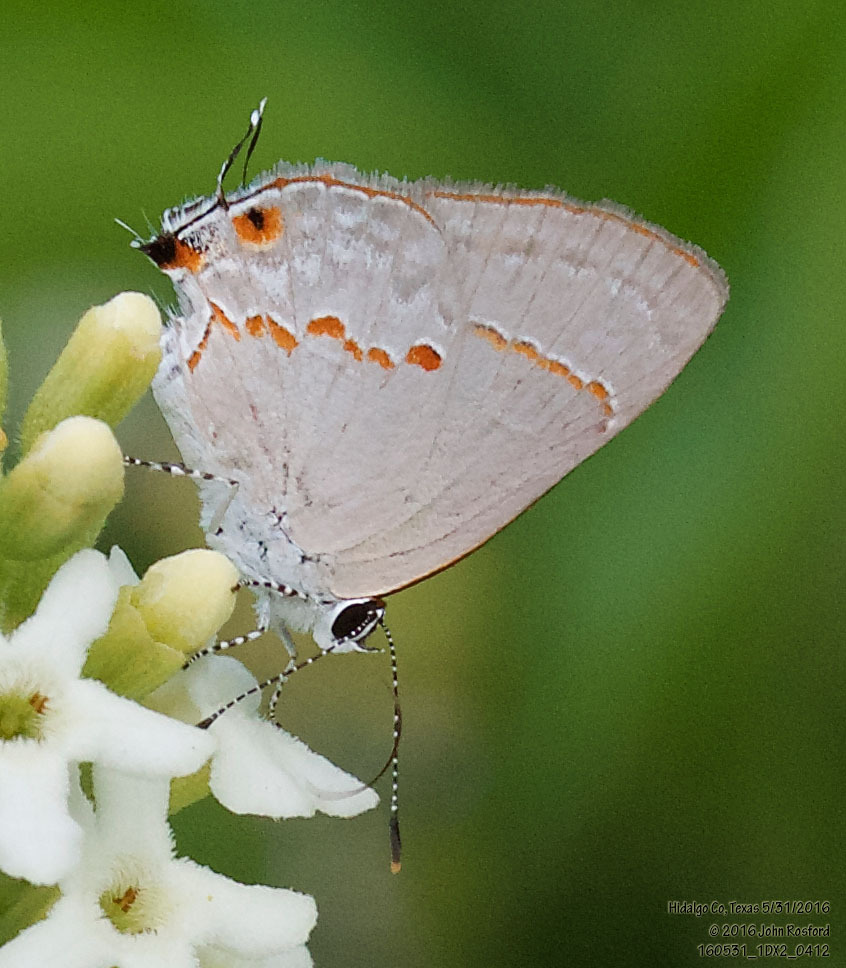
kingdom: Animalia
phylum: Arthropoda
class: Insecta
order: Lepidoptera
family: Lycaenidae
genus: Thecla
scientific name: Thecla azia
